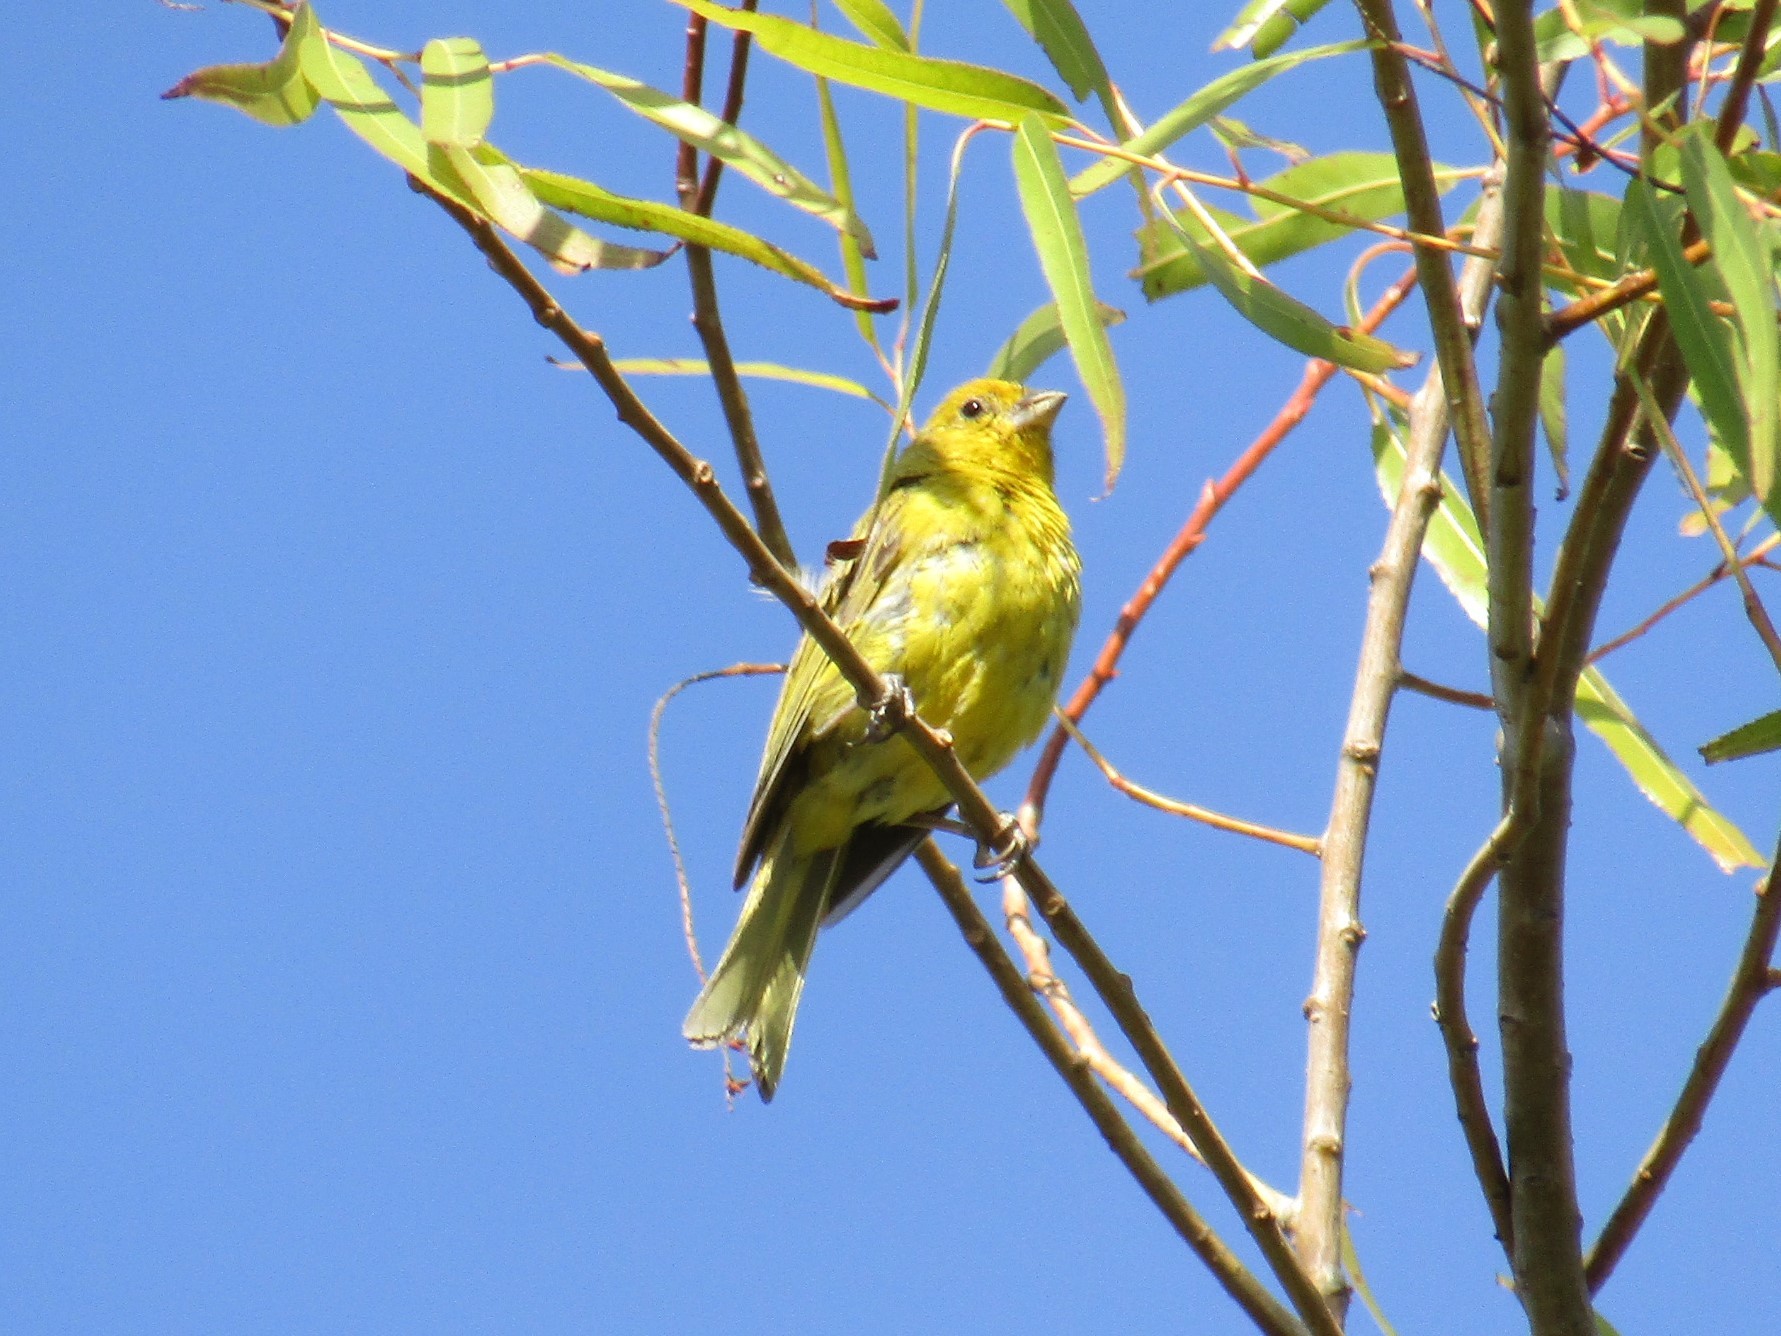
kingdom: Animalia
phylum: Chordata
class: Aves
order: Passeriformes
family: Thraupidae
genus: Sicalis
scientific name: Sicalis flaveola
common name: Saffron finch
